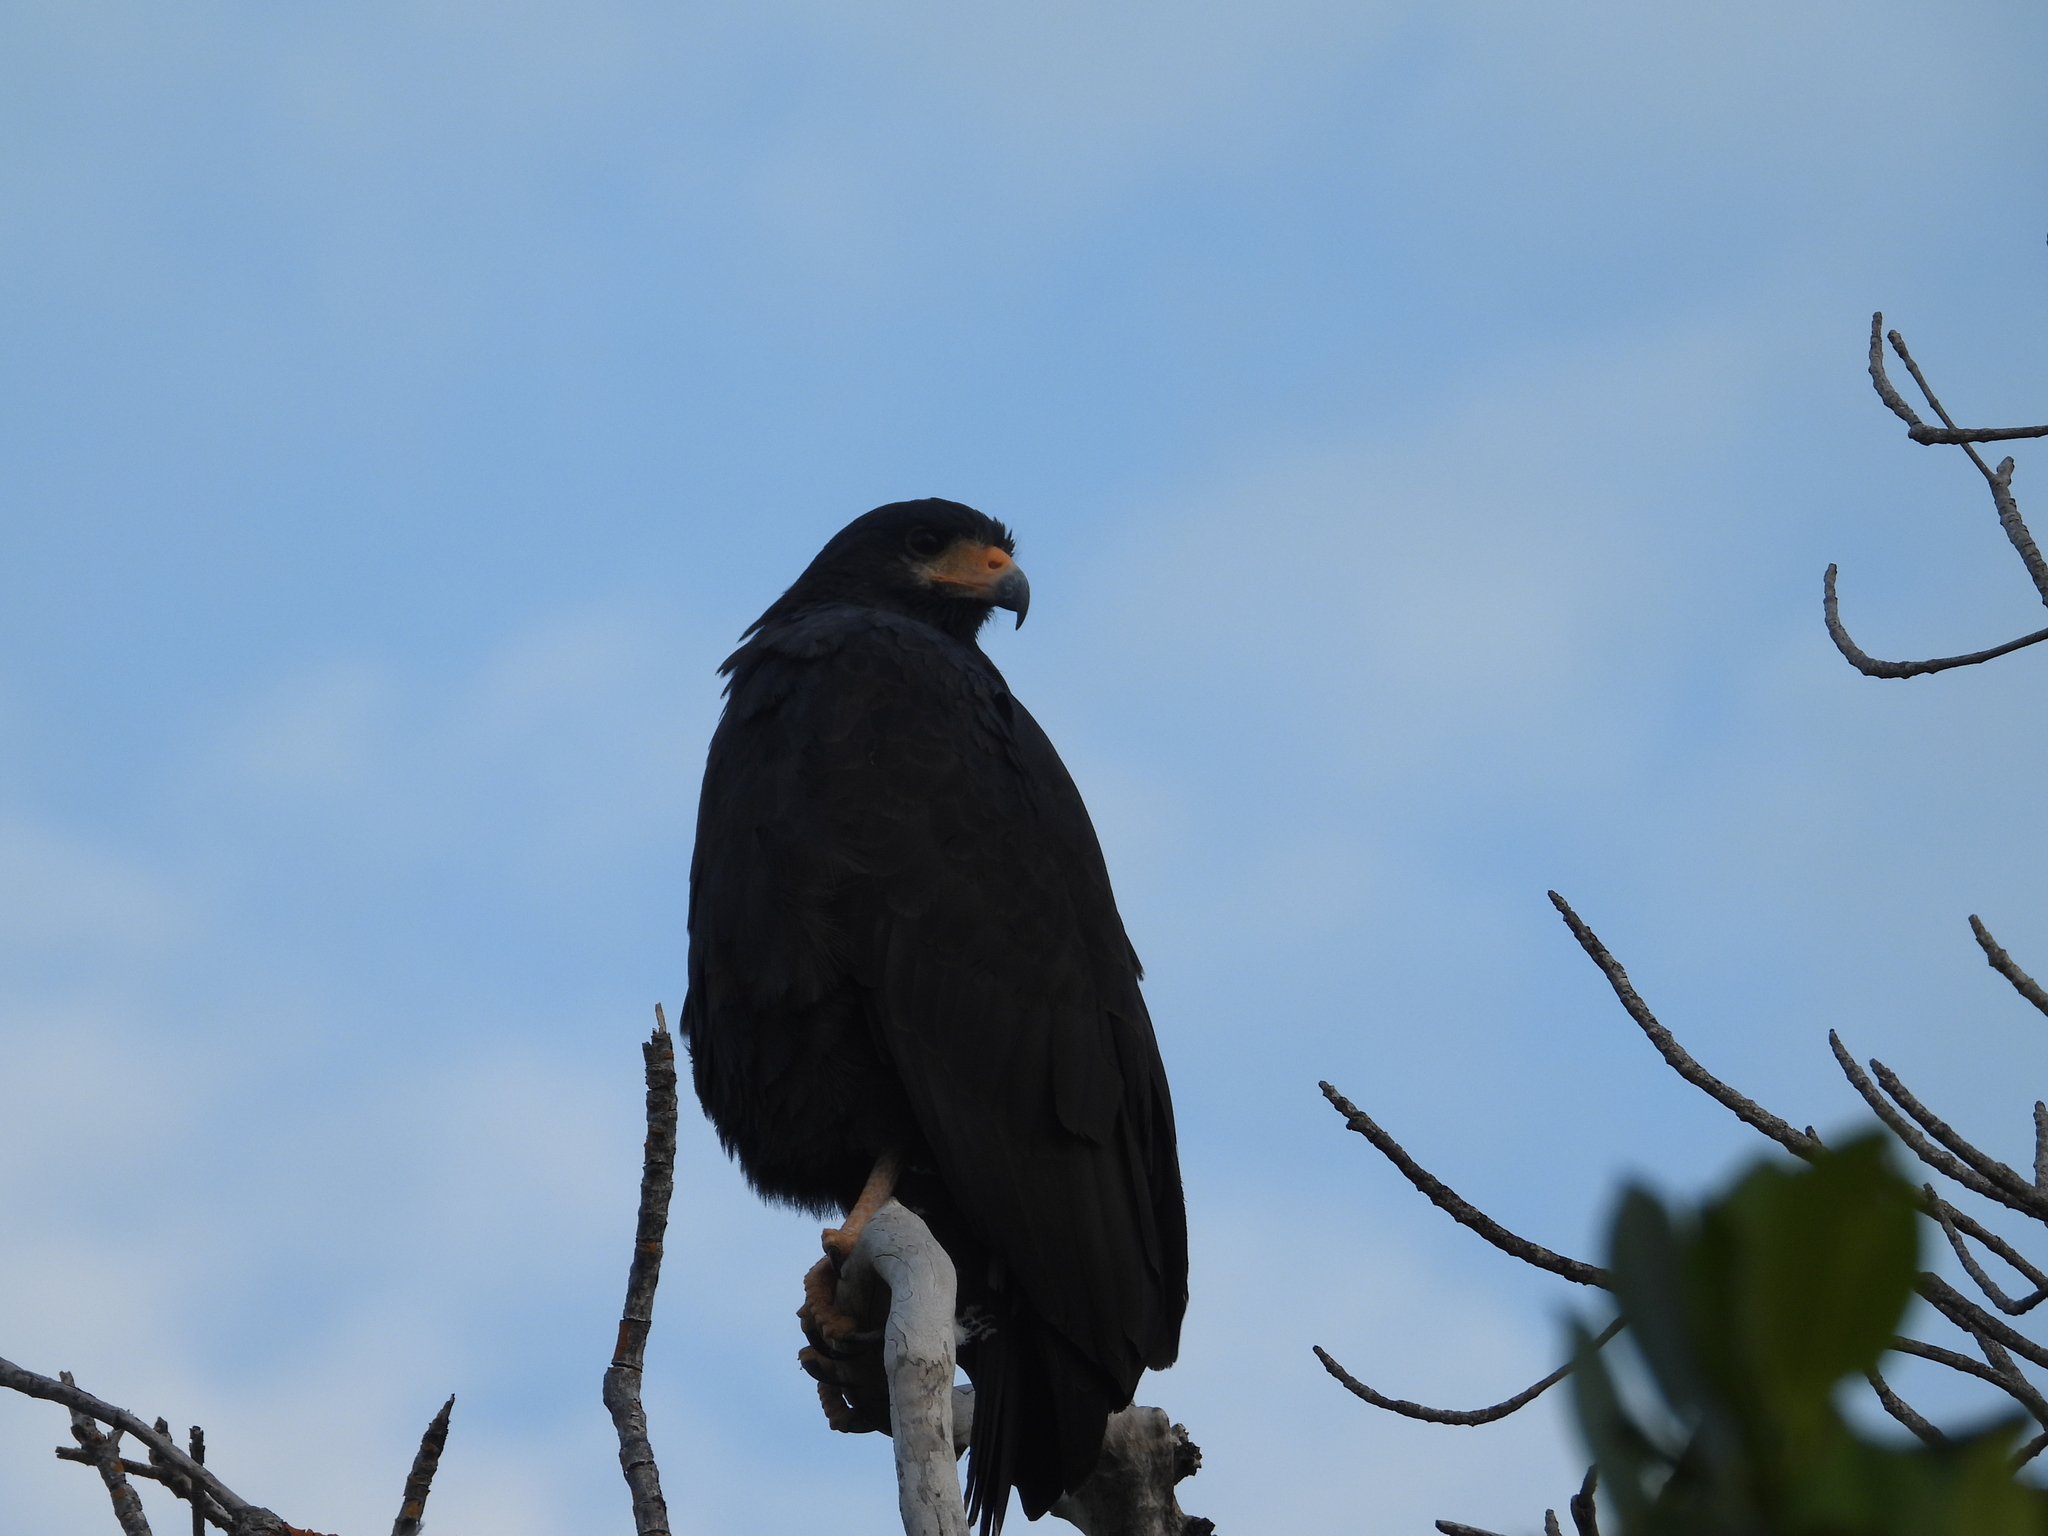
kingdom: Animalia
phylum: Chordata
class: Aves
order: Accipitriformes
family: Accipitridae
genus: Buteogallus
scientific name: Buteogallus anthracinus
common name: Common black hawk
